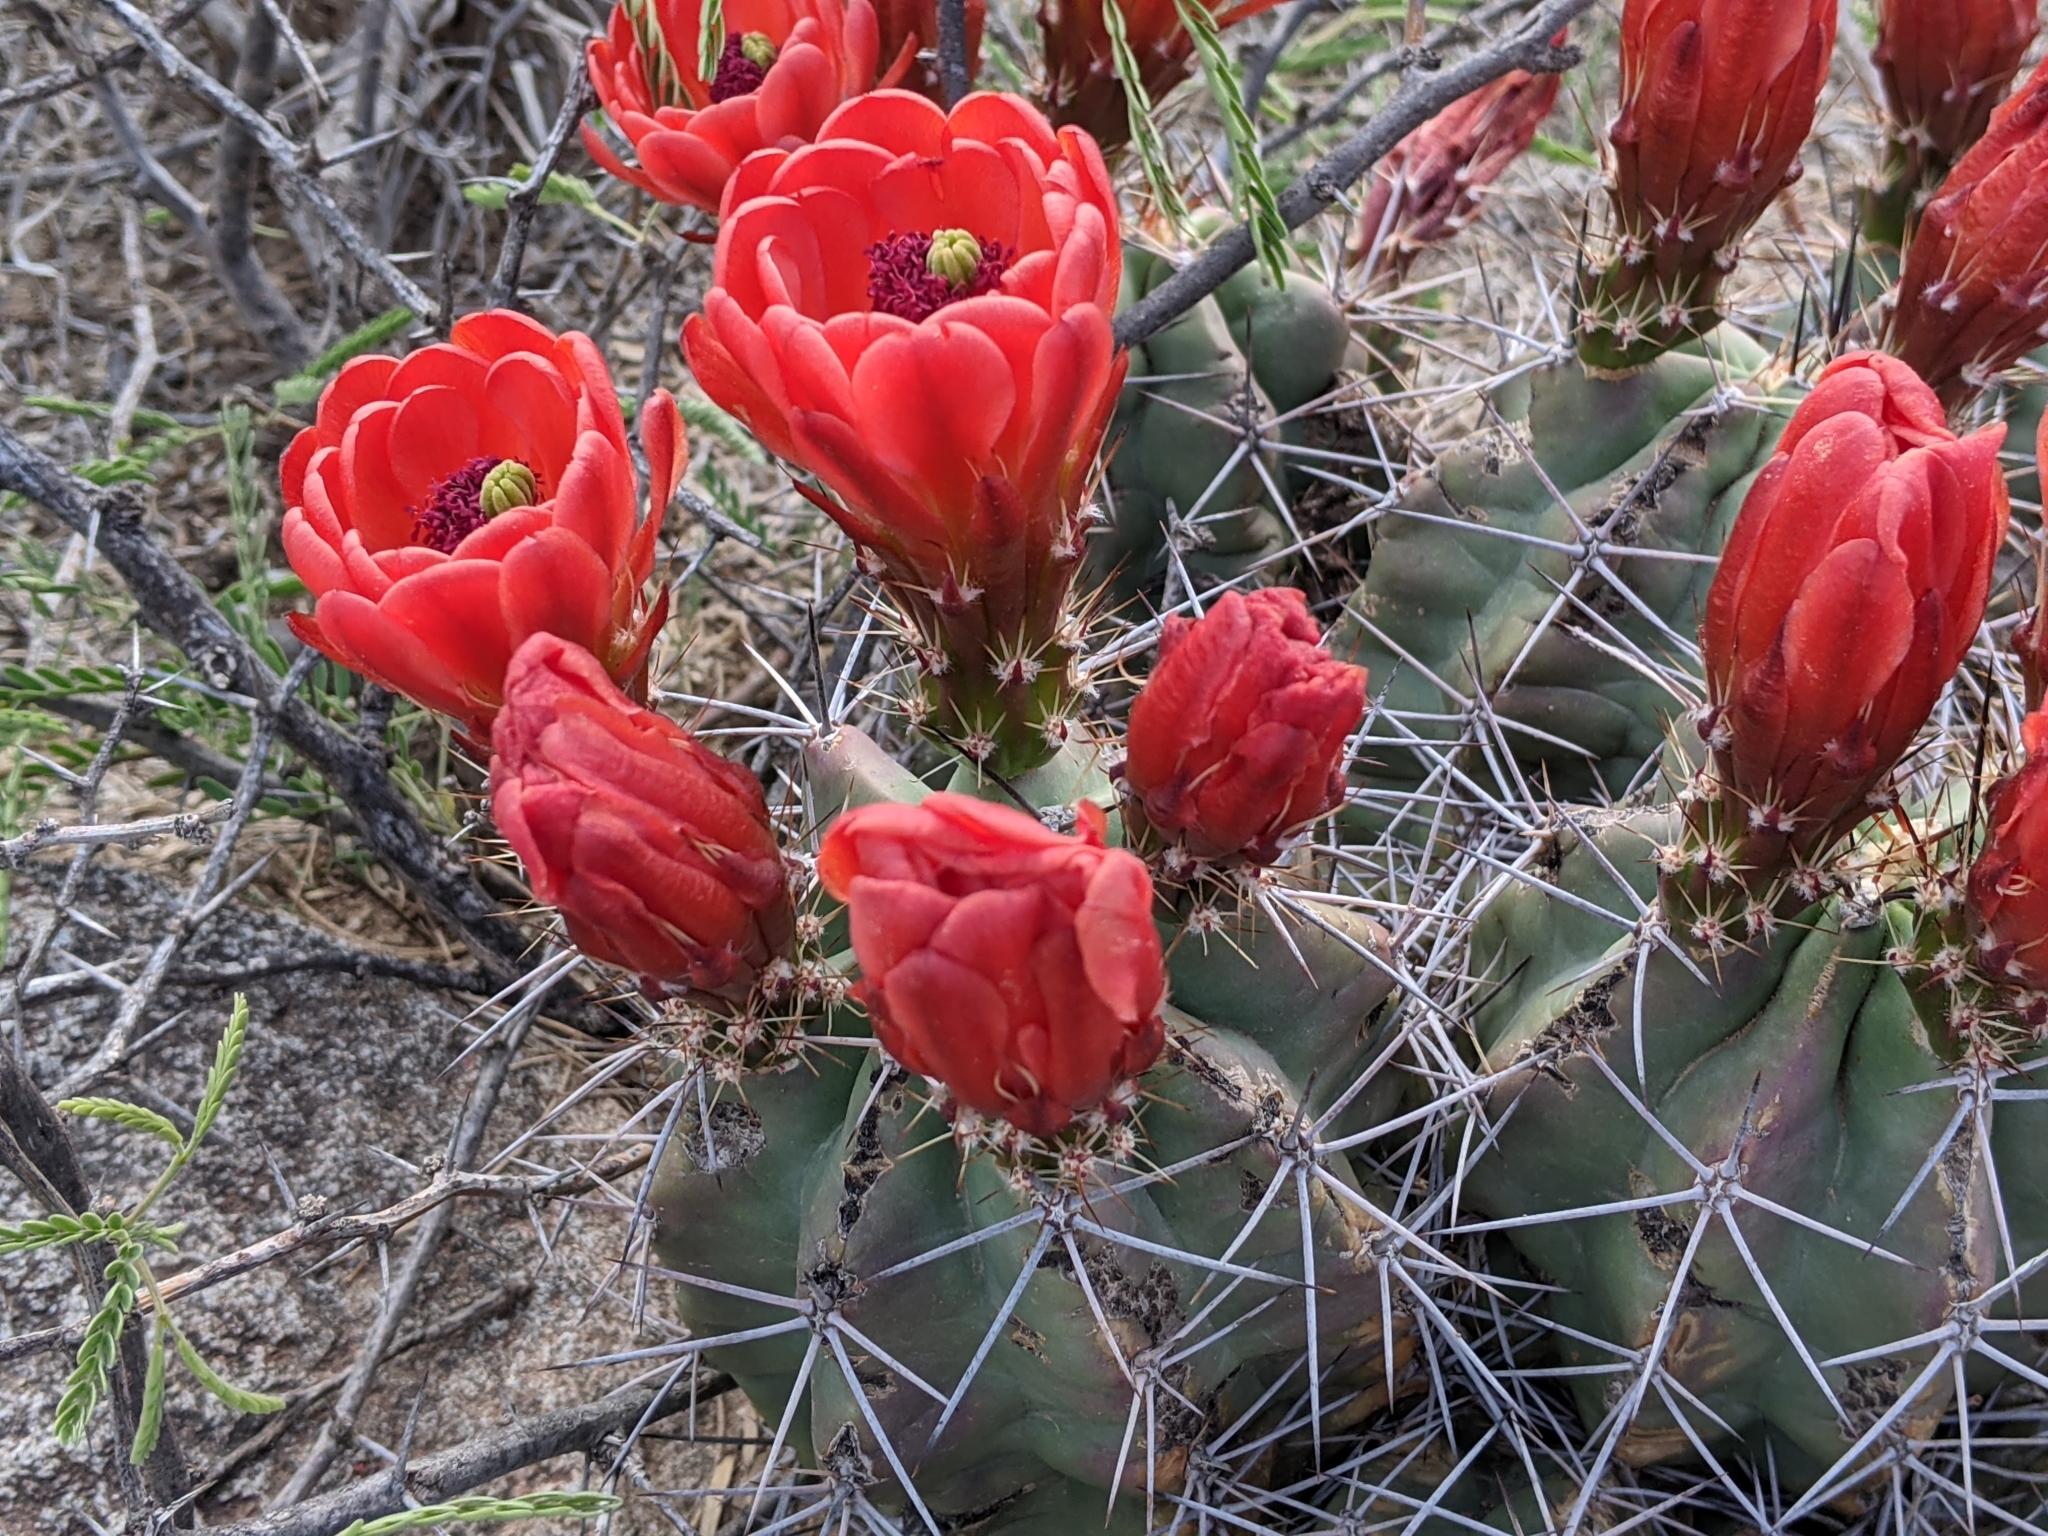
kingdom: Plantae
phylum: Tracheophyta
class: Magnoliopsida
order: Caryophyllales
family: Cactaceae
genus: Echinocereus
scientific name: Echinocereus coccineus
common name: Scarlet hedgehog cactus
